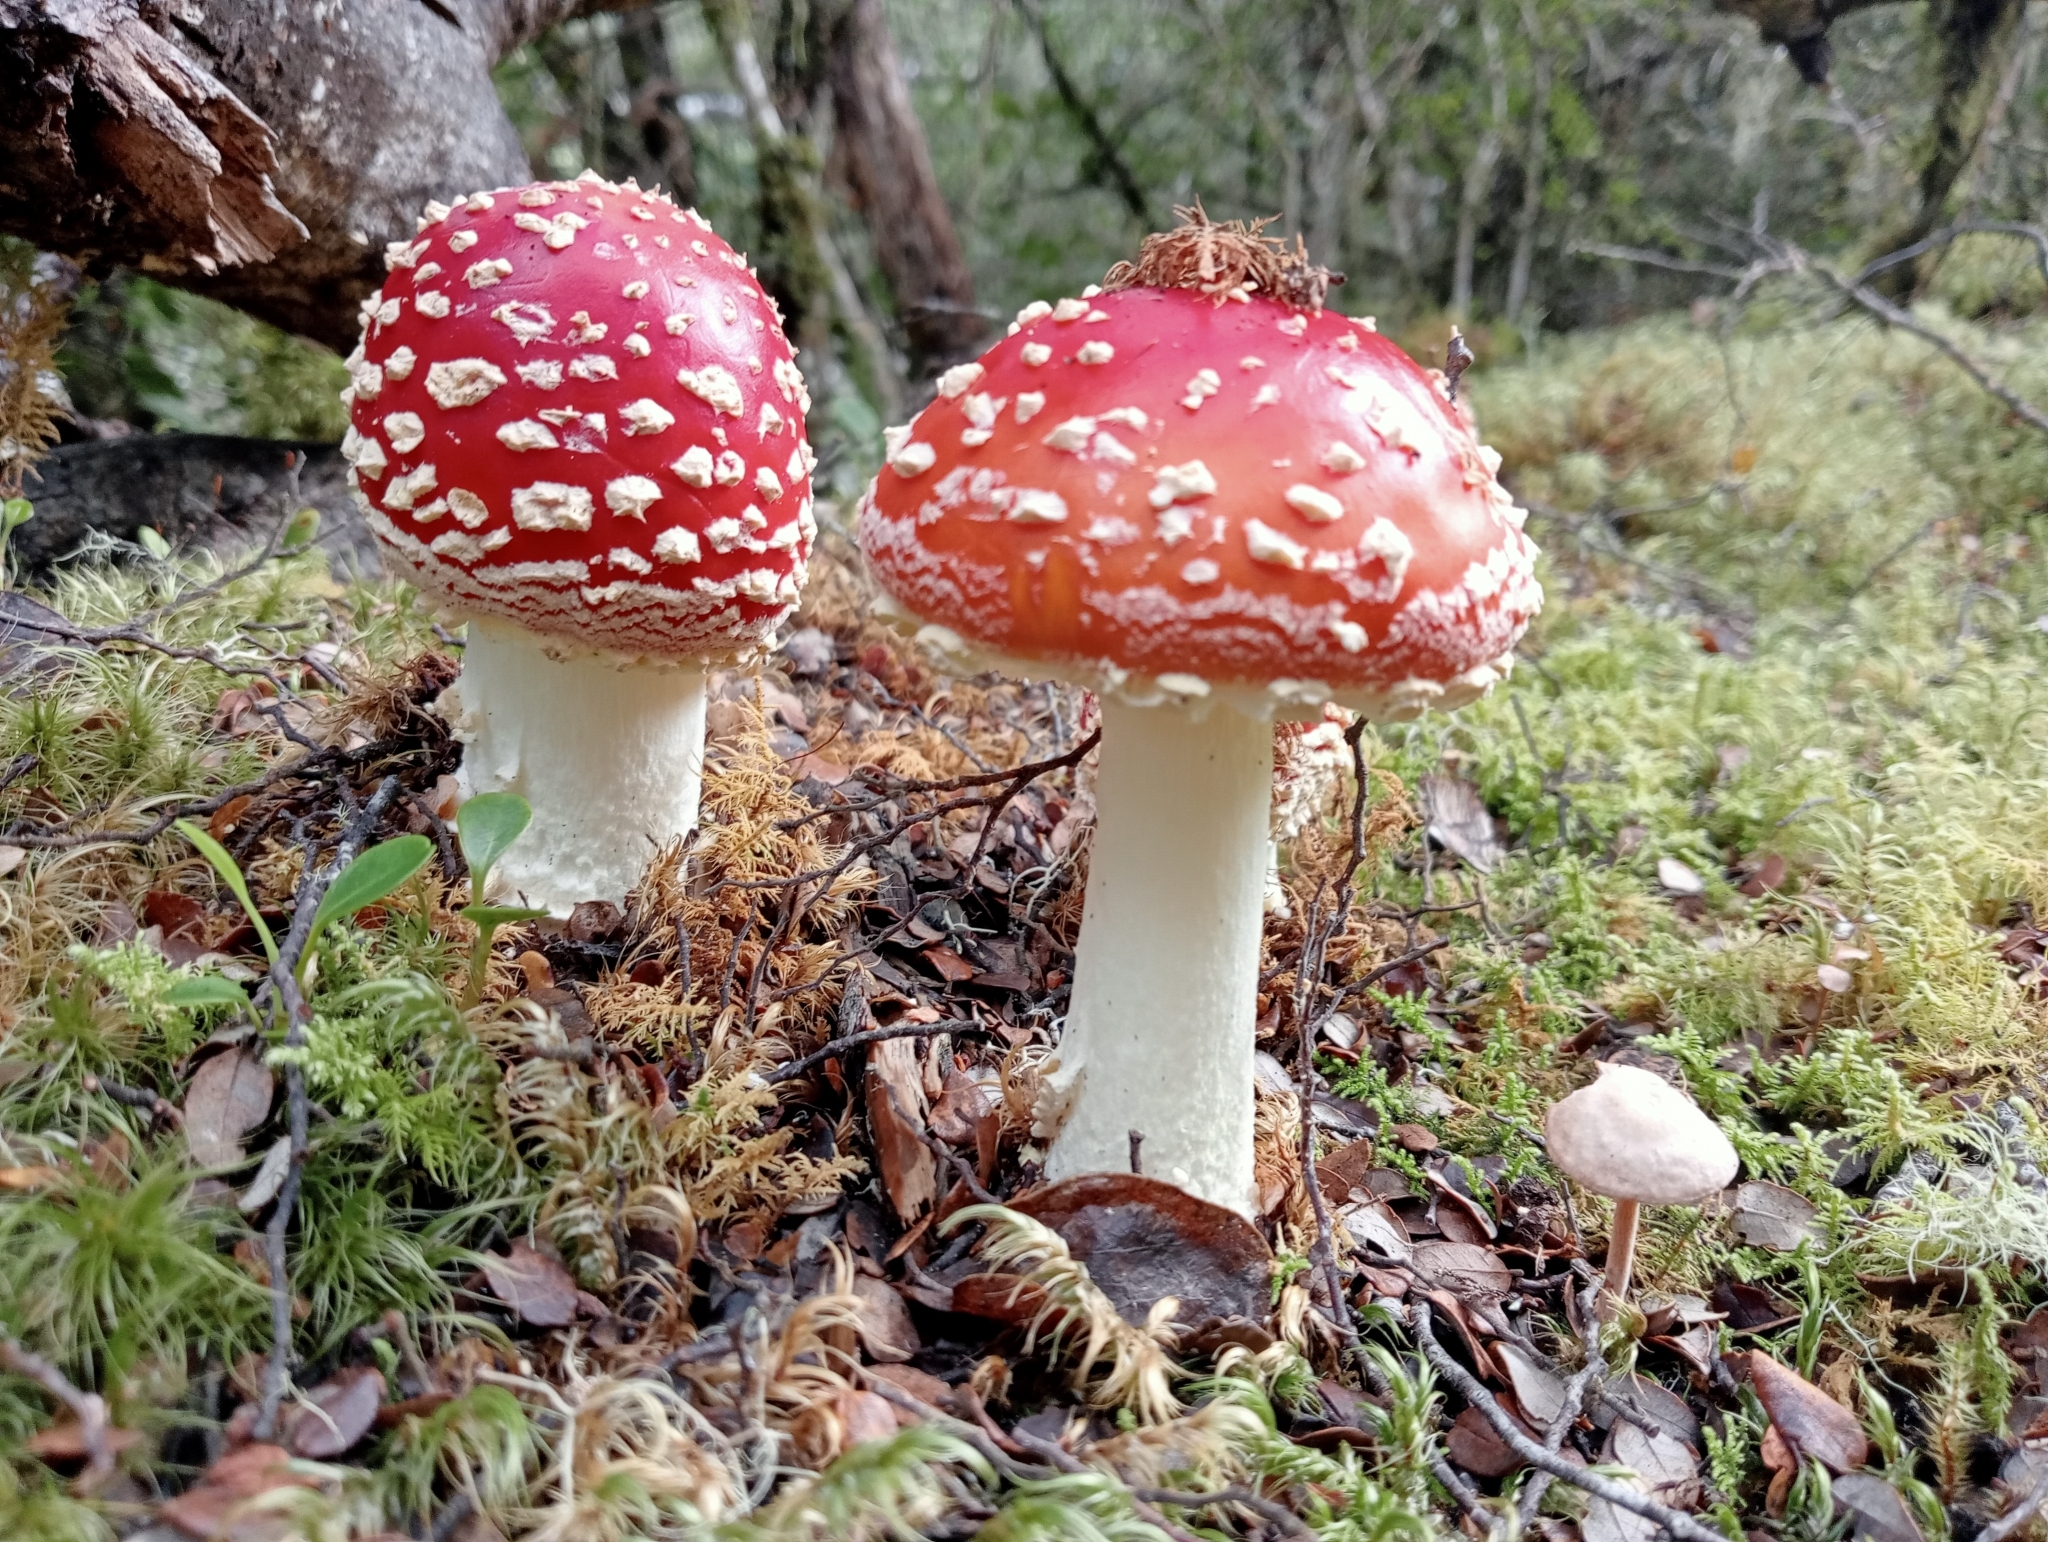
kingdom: Fungi
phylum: Basidiomycota
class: Agaricomycetes
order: Agaricales
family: Amanitaceae
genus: Amanita
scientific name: Amanita muscaria
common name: Fly agaric
